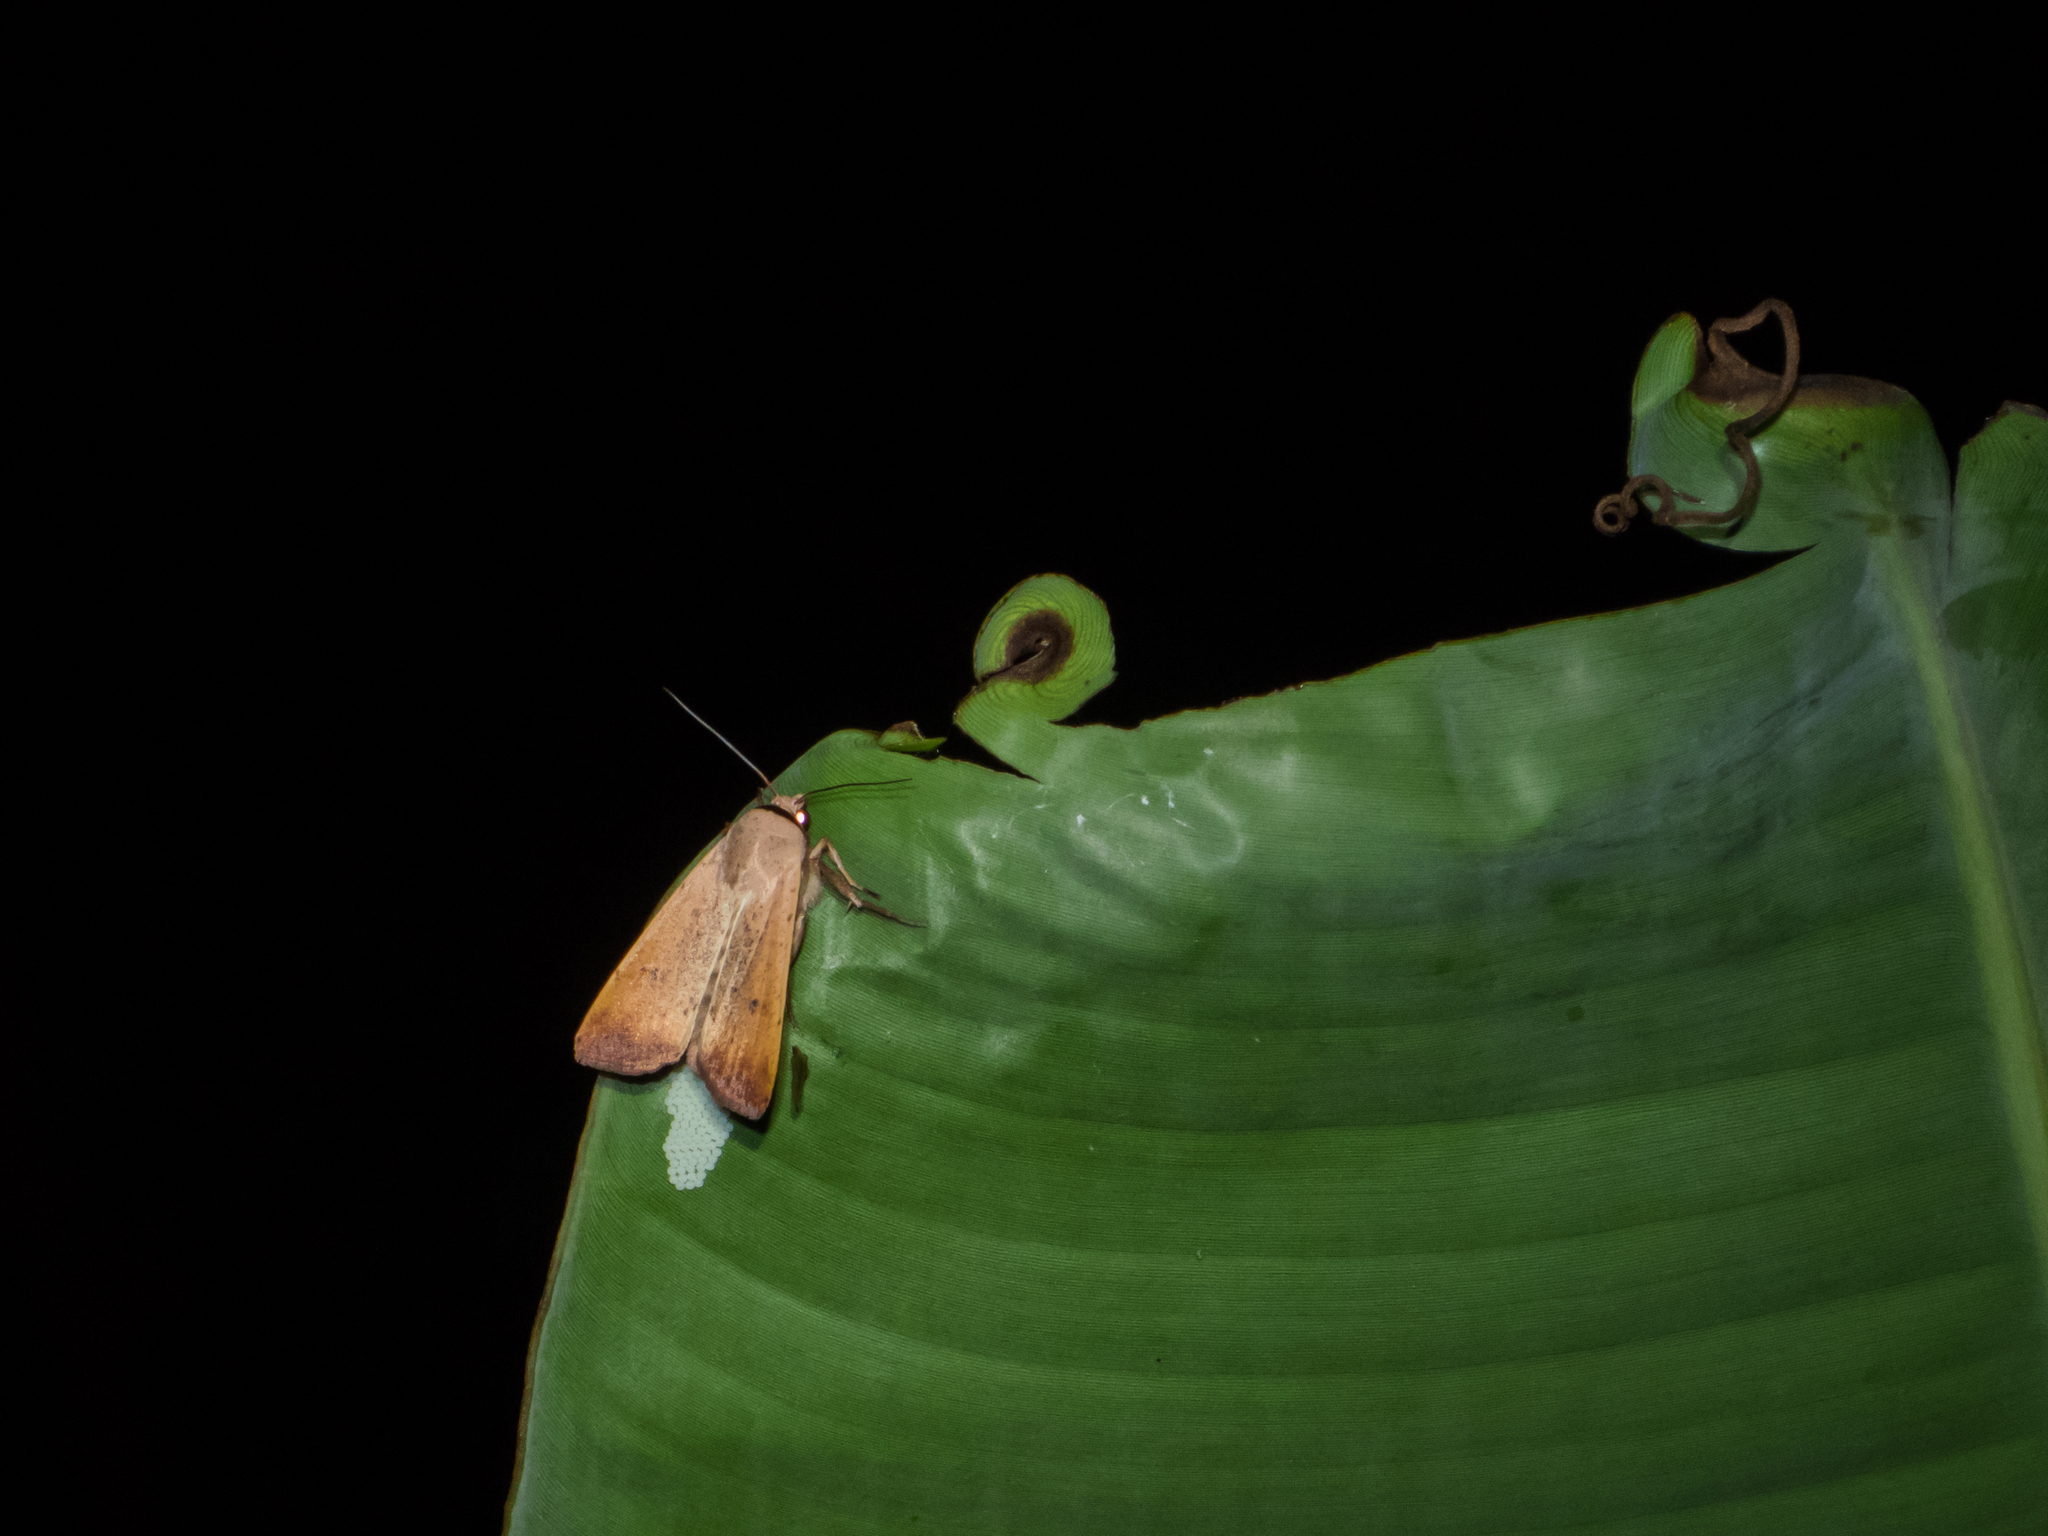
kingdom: Animalia
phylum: Arthropoda
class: Insecta
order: Lepidoptera
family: Noctuidae
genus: Anicla
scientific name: Anicla ignicans
